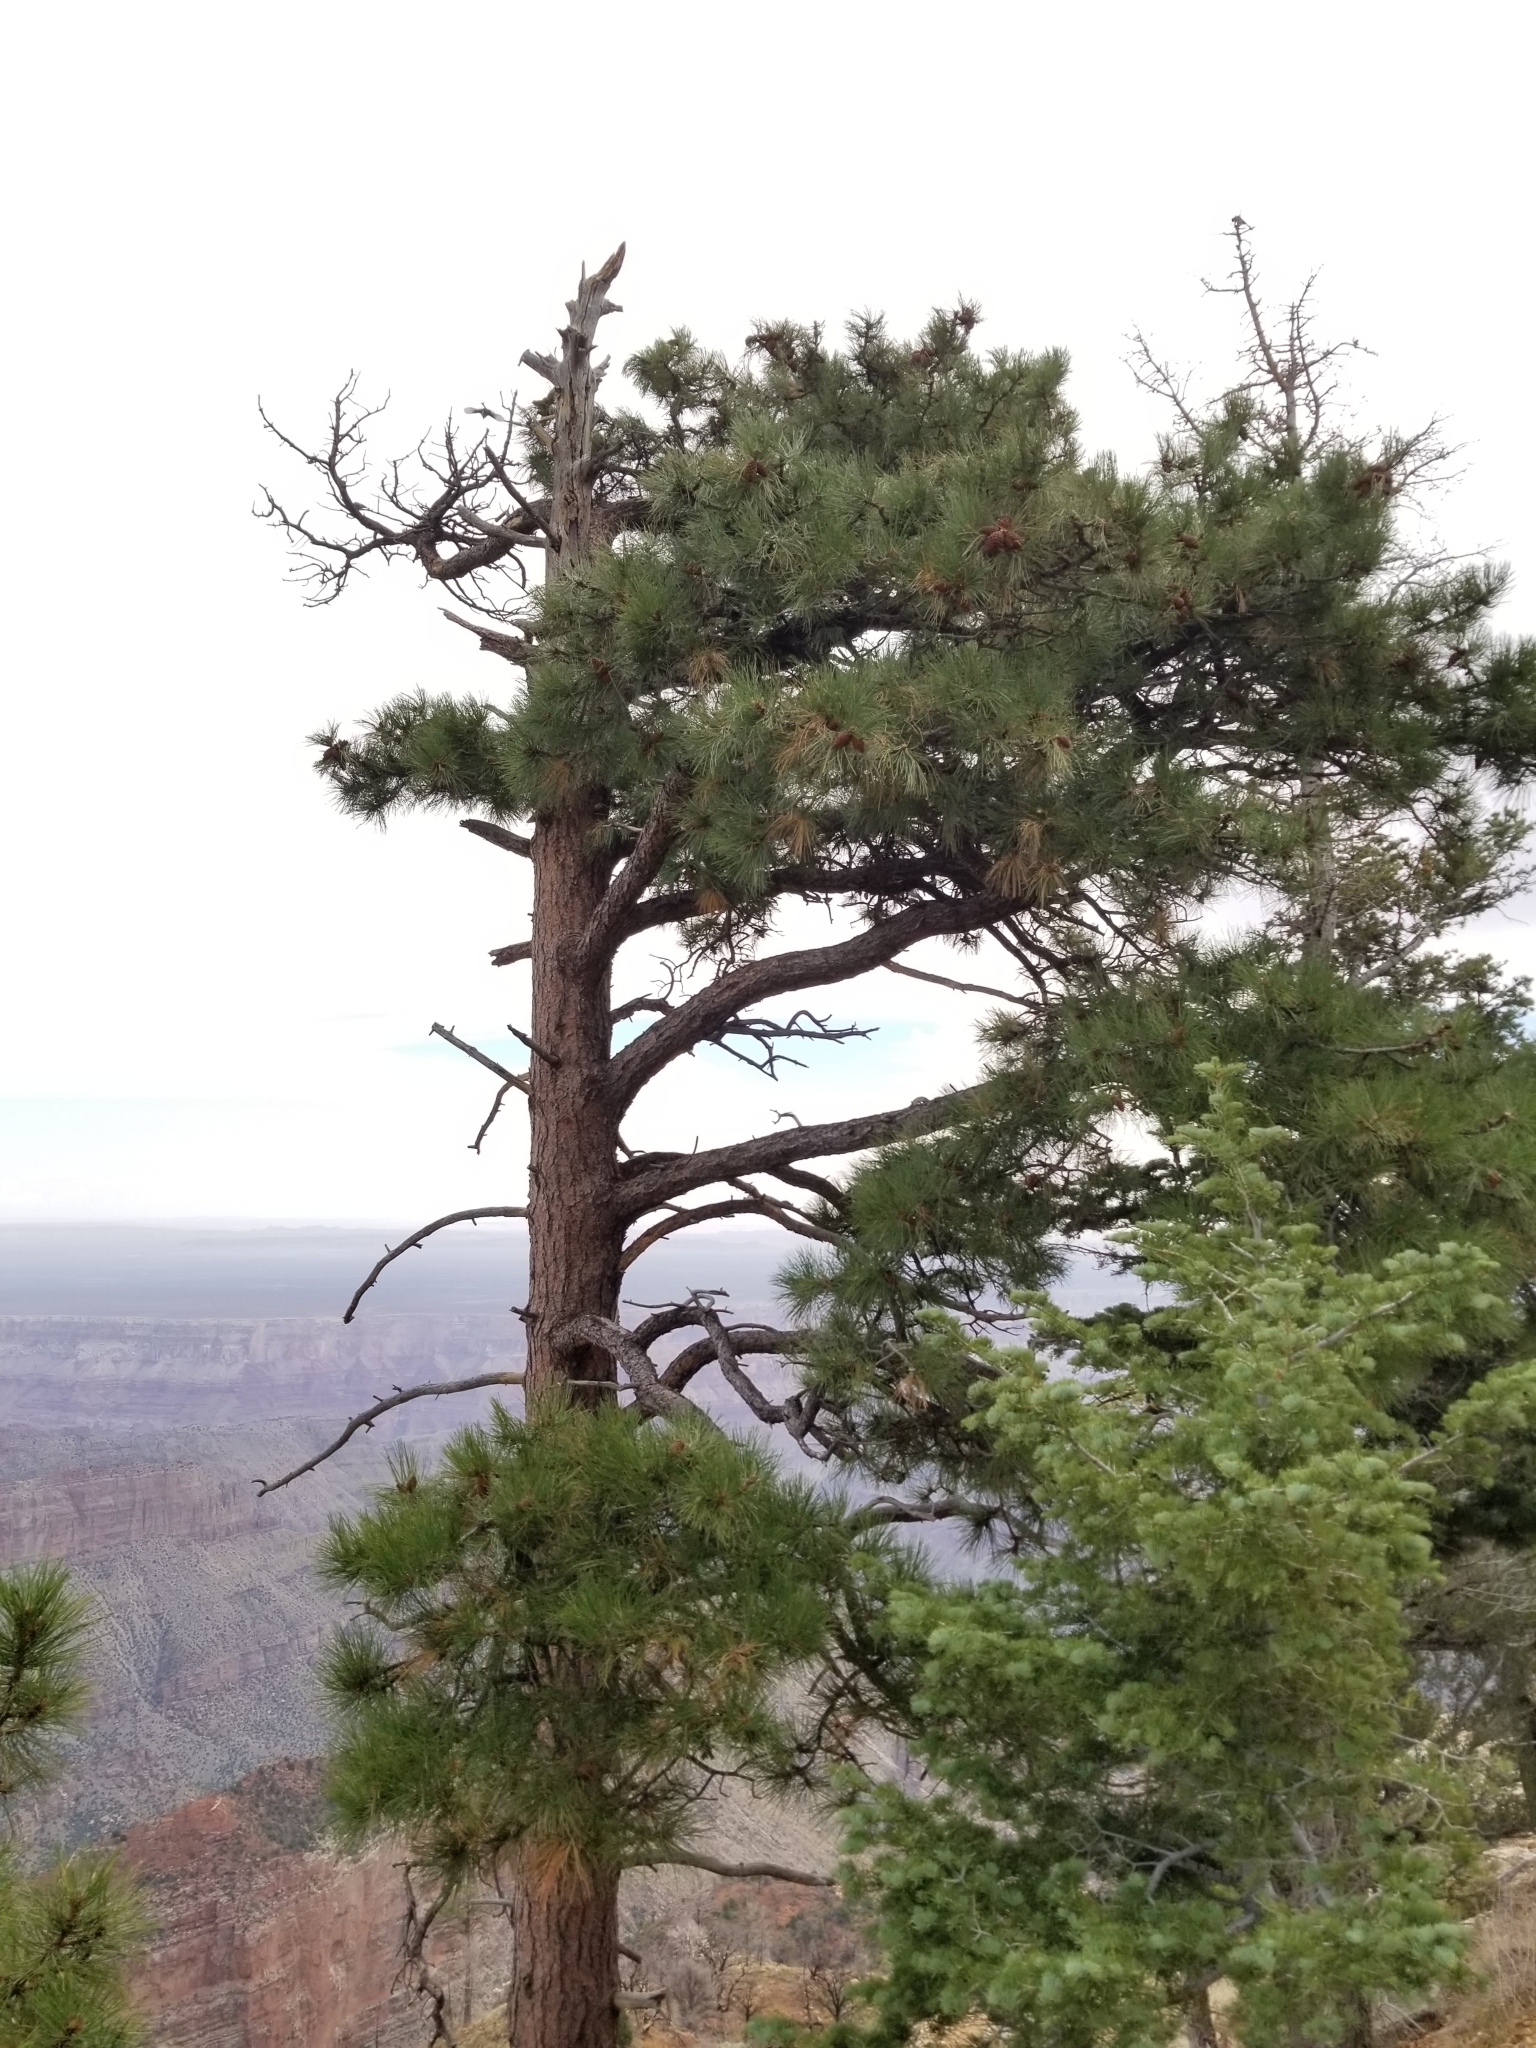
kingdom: Plantae
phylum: Tracheophyta
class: Pinopsida
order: Pinales
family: Pinaceae
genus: Pinus
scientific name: Pinus ponderosa
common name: Western yellow-pine
